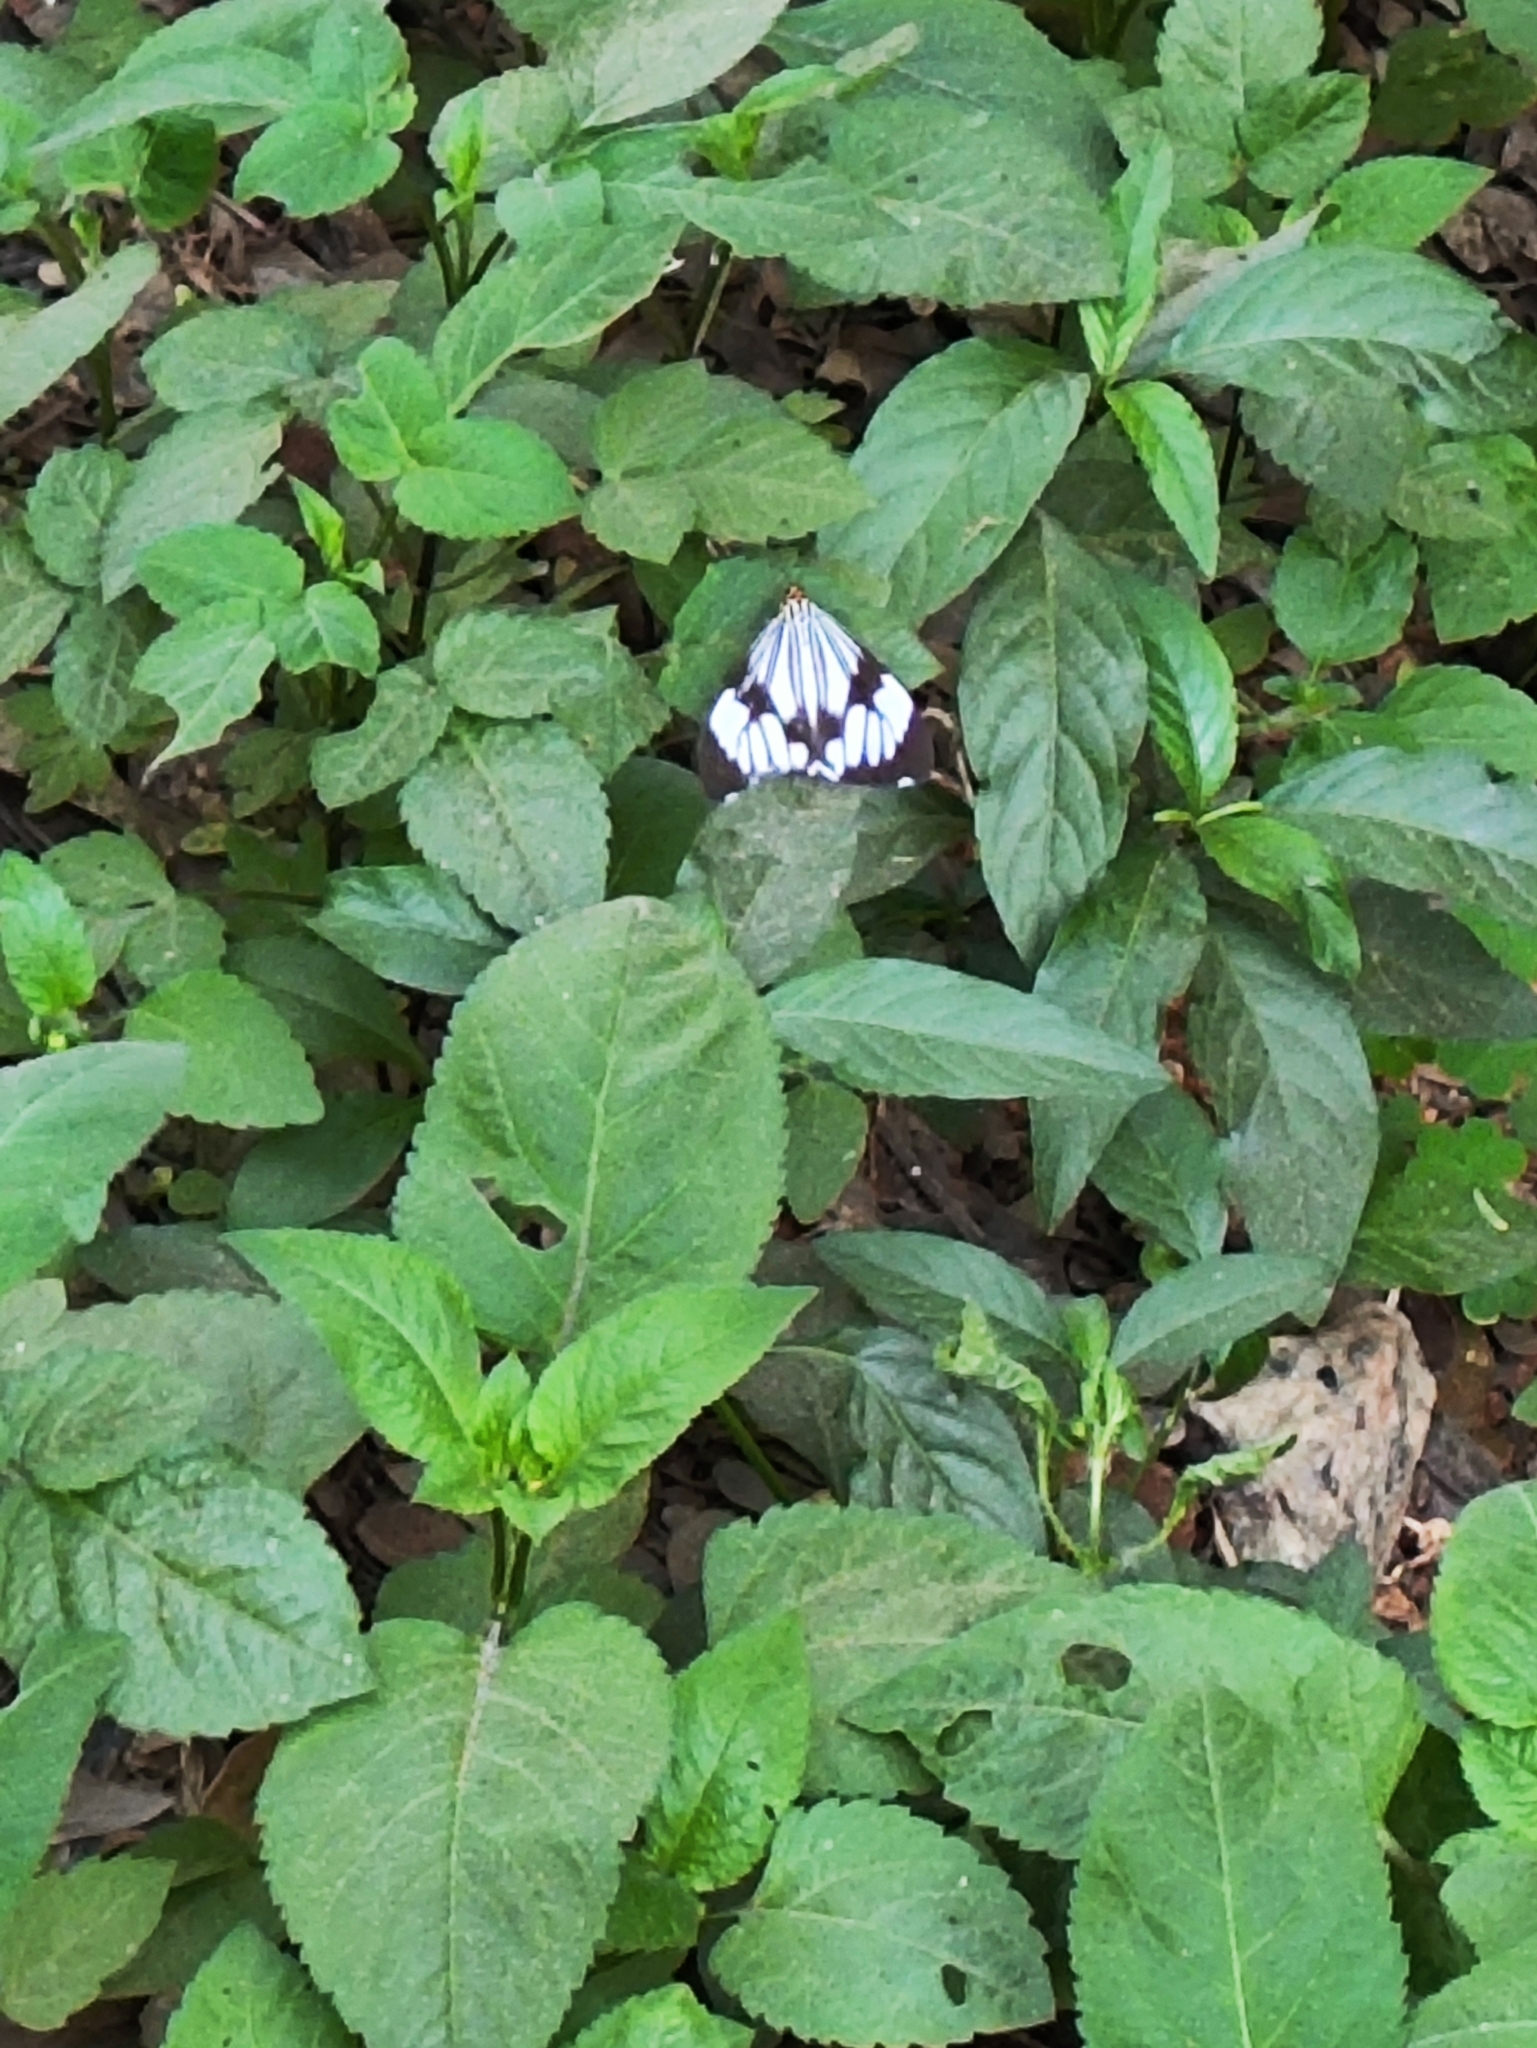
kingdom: Animalia
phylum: Arthropoda
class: Insecta
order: Lepidoptera
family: Erebidae
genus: Nyctemera
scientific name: Nyctemera coleta
